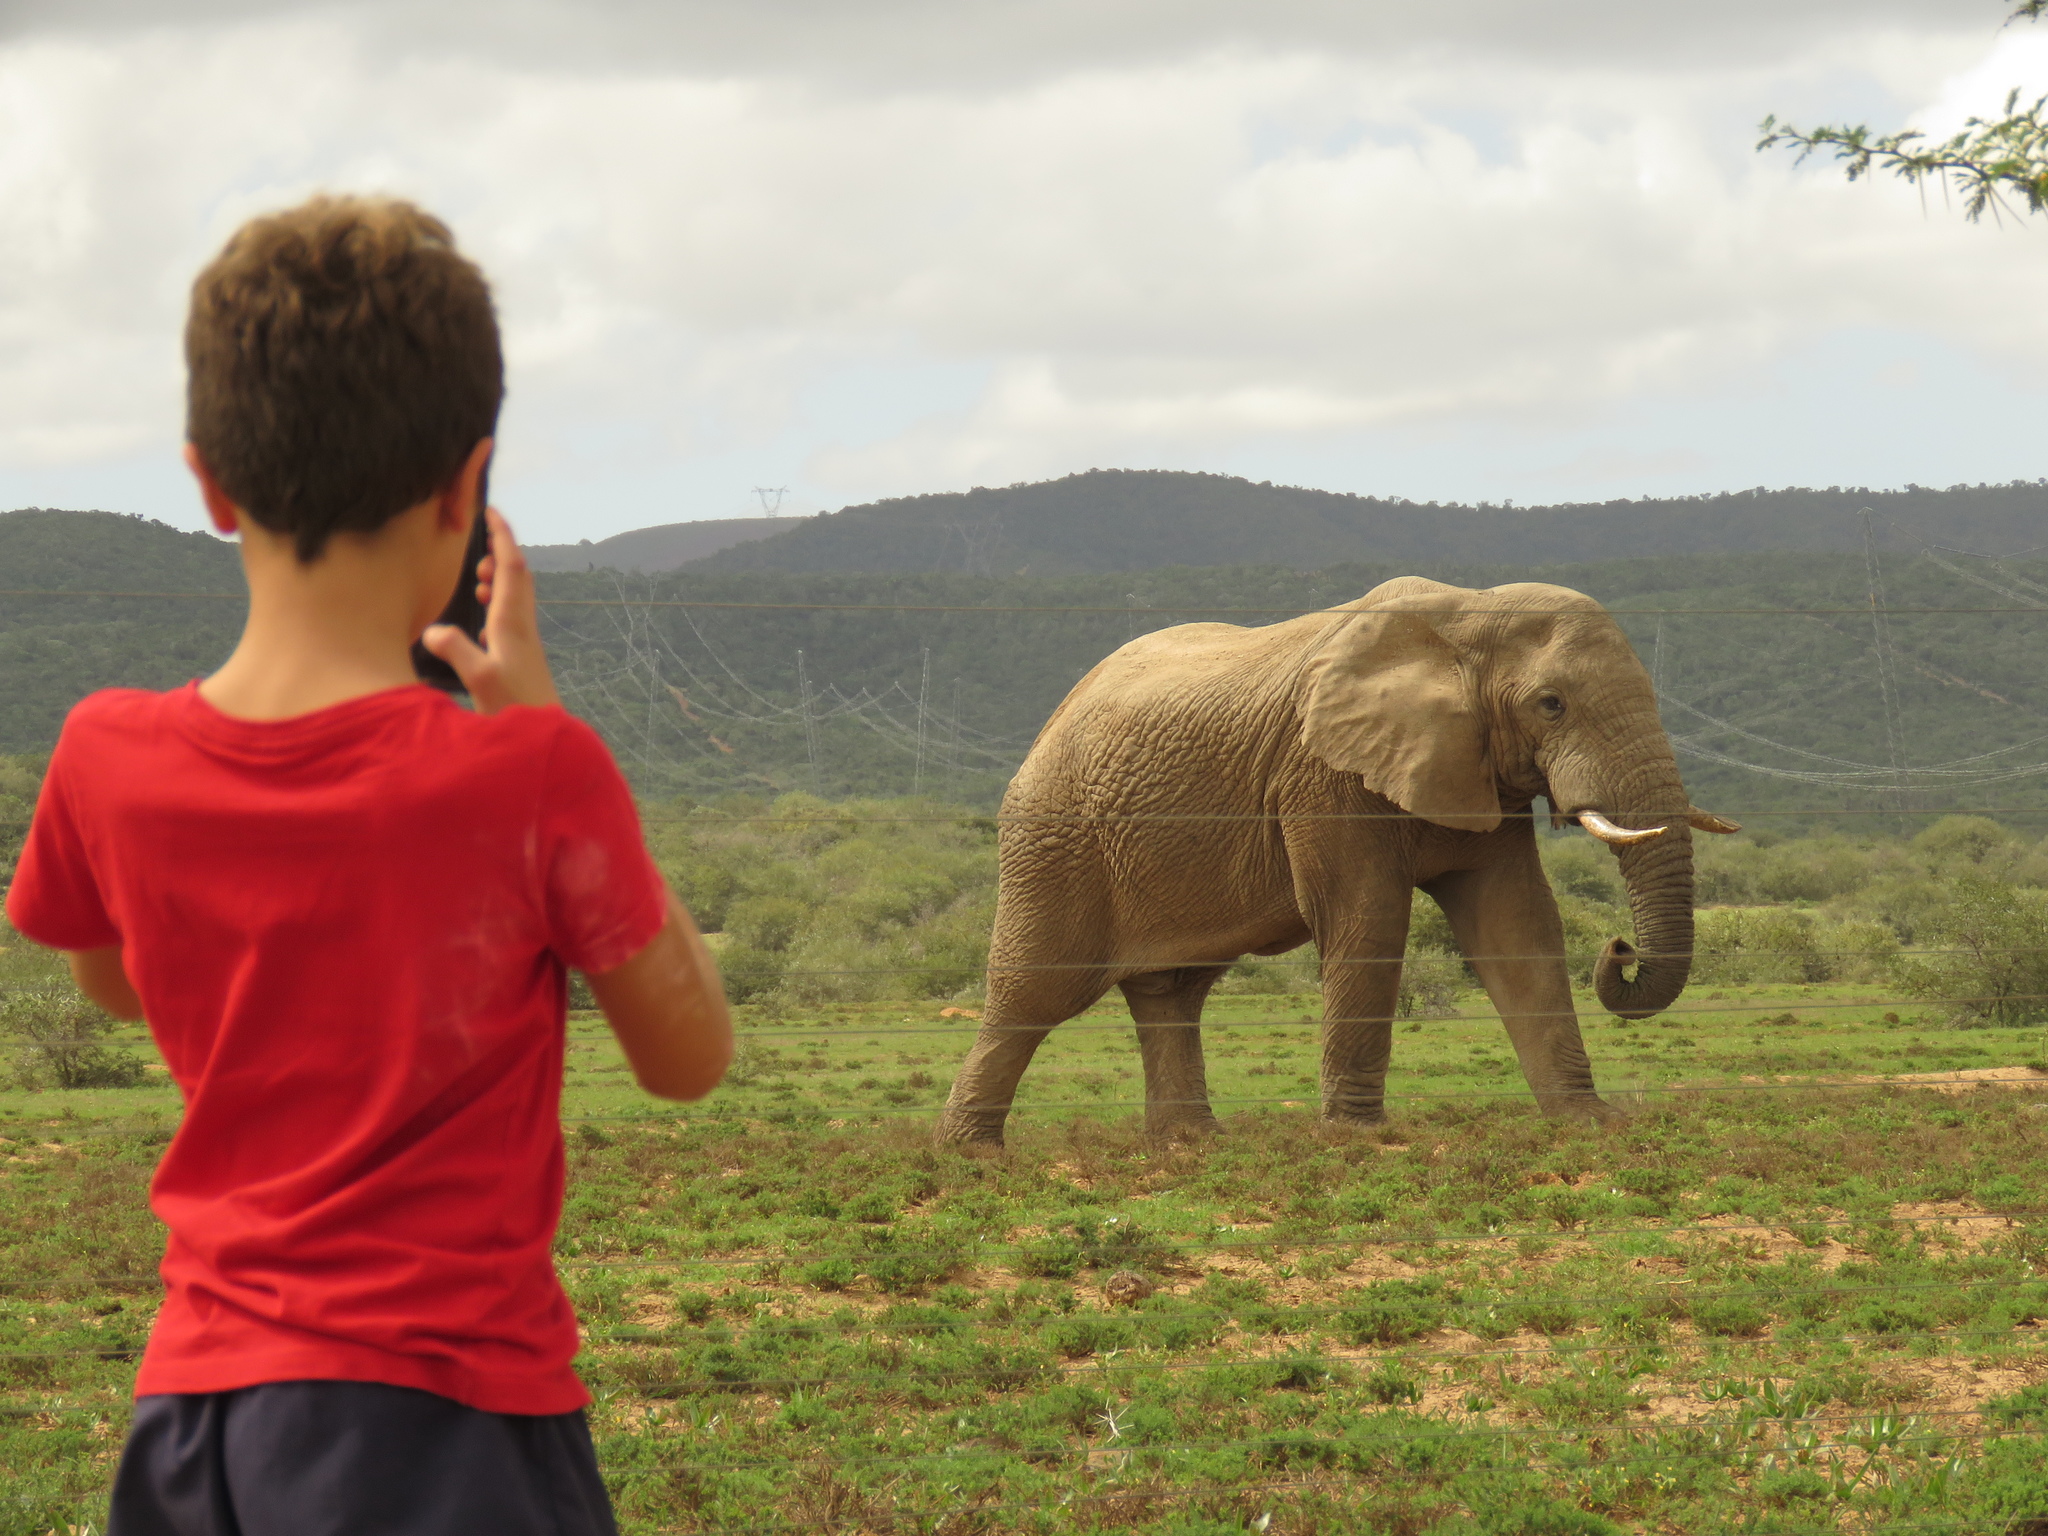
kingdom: Animalia
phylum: Chordata
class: Mammalia
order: Proboscidea
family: Elephantidae
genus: Loxodonta
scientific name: Loxodonta africana
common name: African elephant
